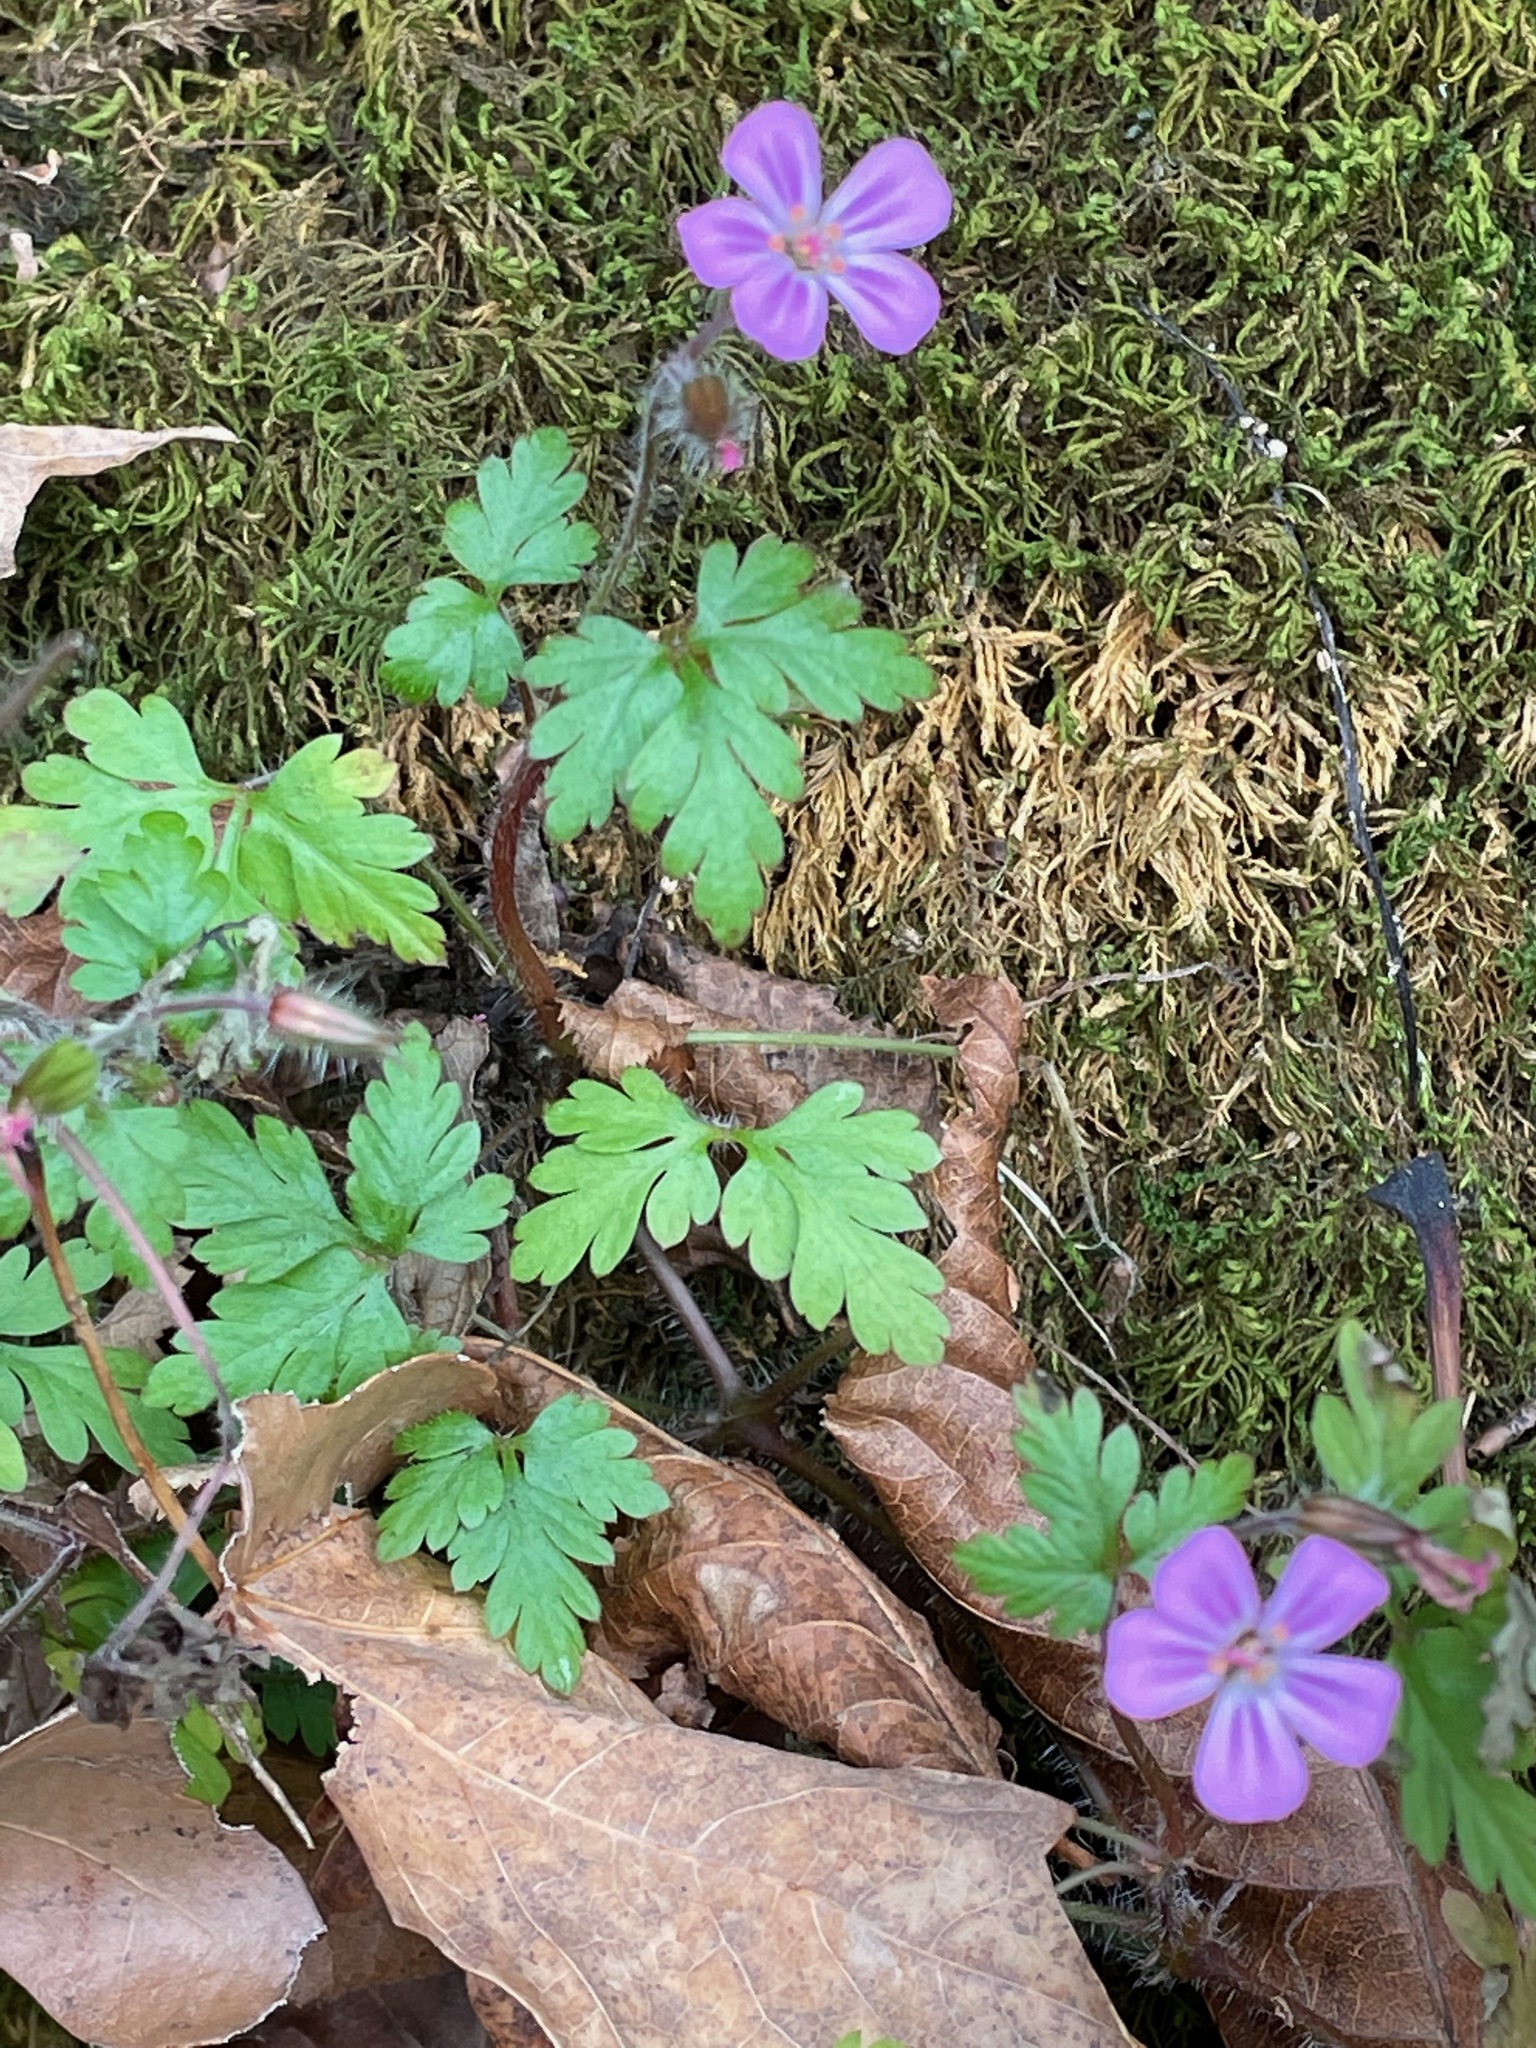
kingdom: Plantae
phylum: Tracheophyta
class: Magnoliopsida
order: Geraniales
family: Geraniaceae
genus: Geranium
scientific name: Geranium robertianum
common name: Herb-robert
